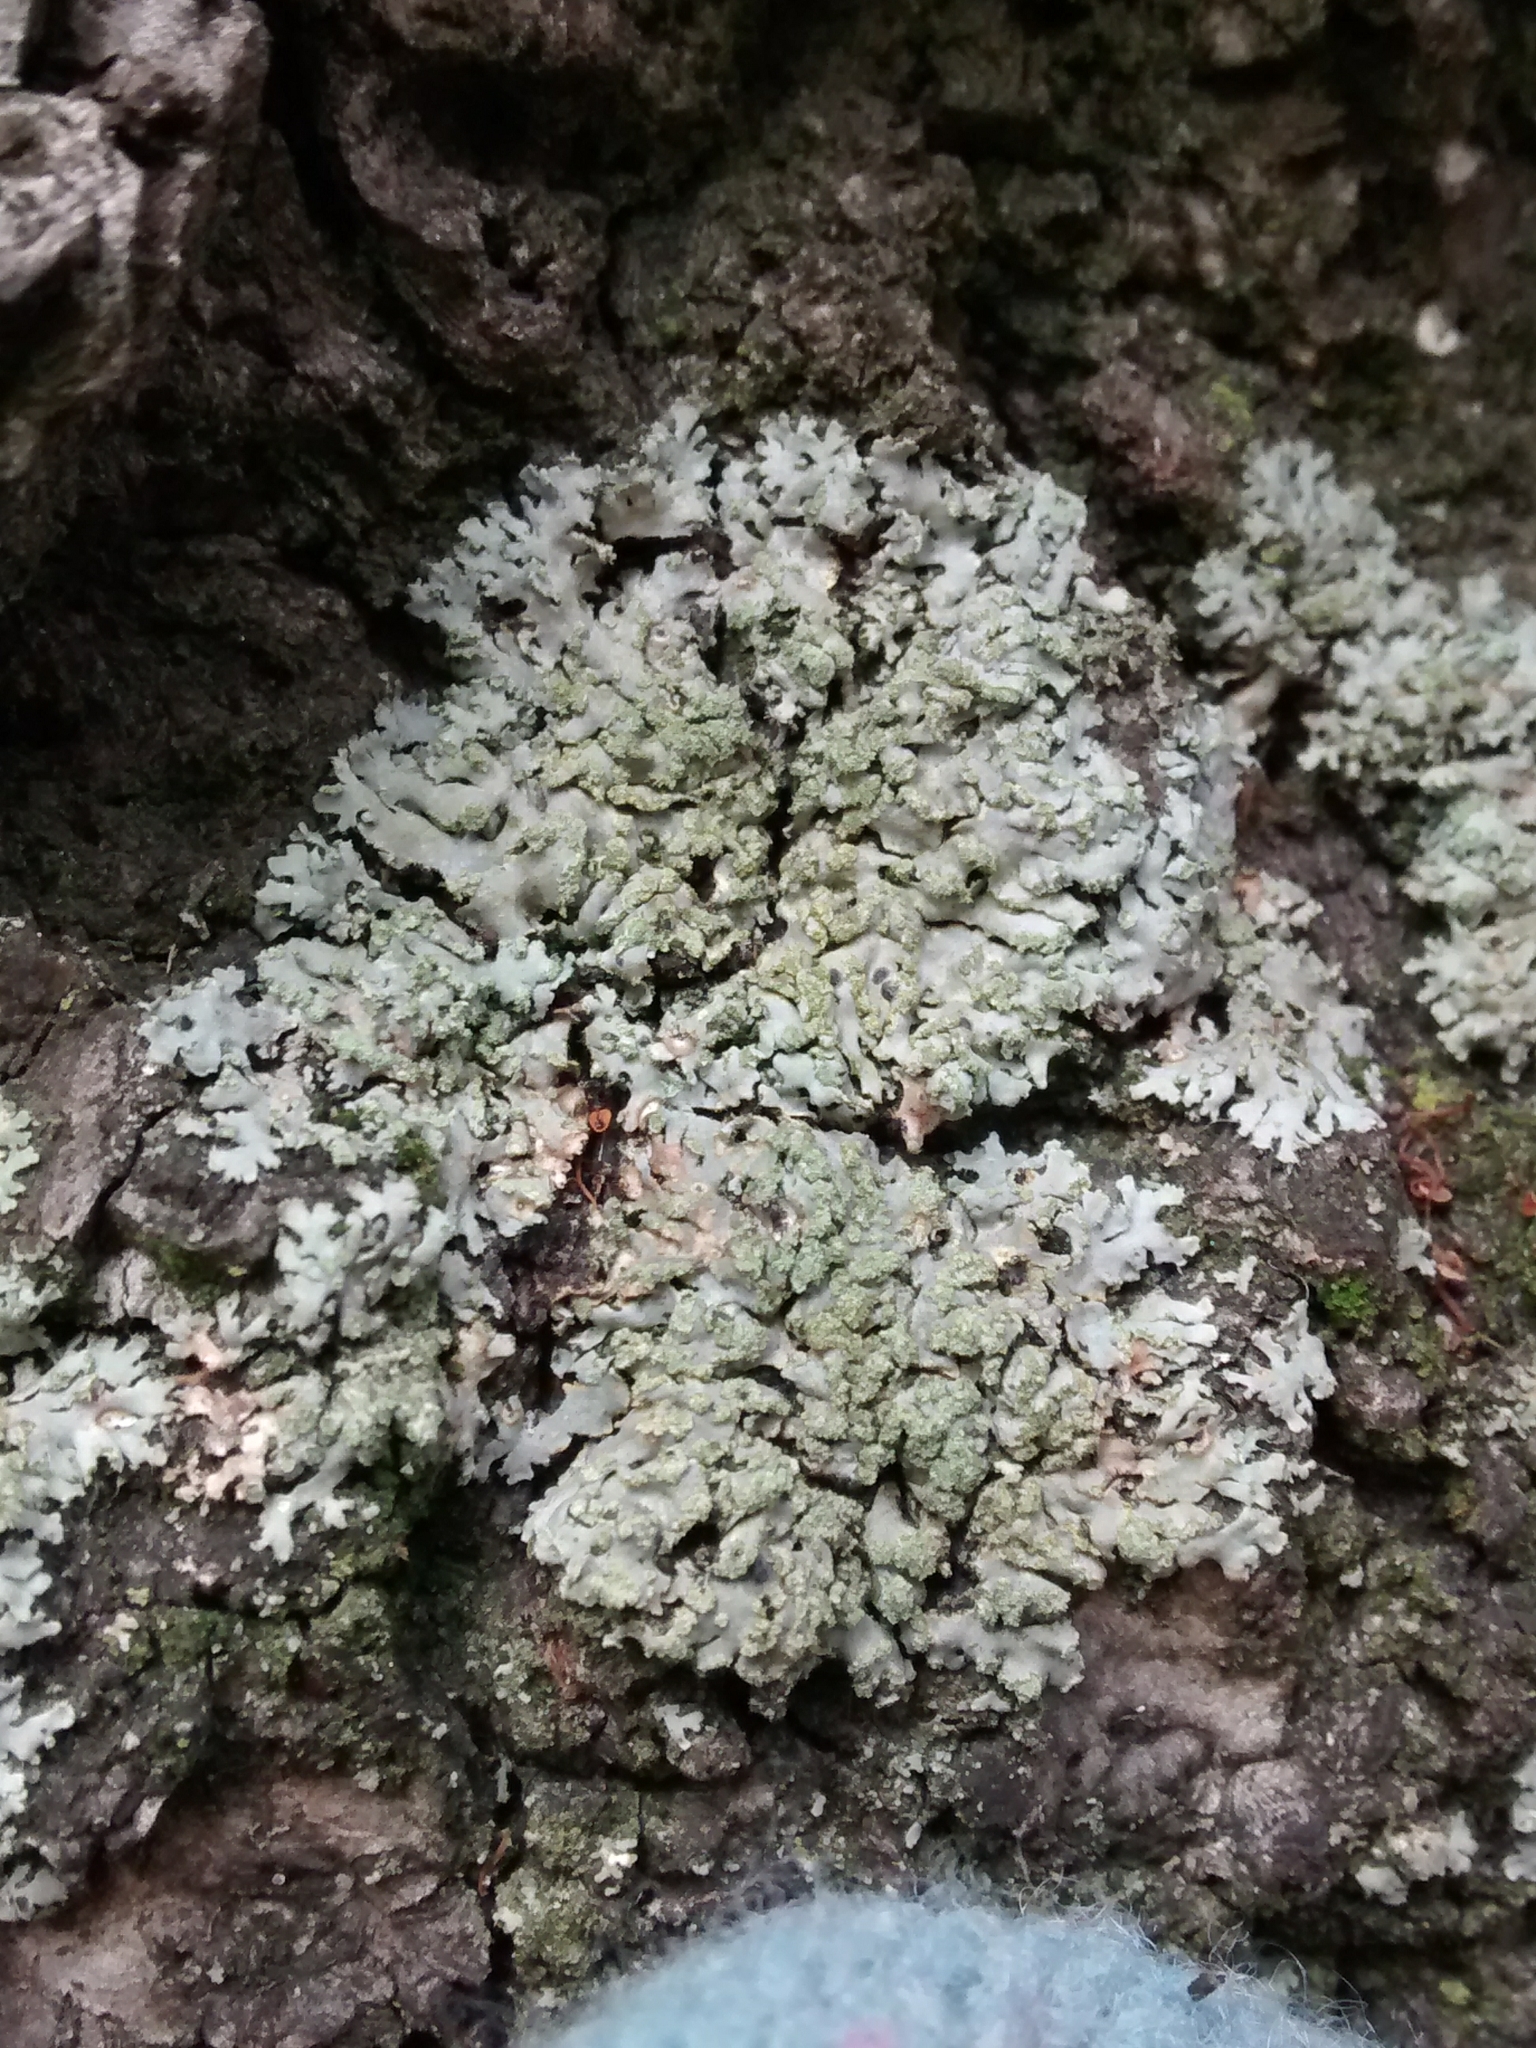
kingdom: Fungi
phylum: Ascomycota
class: Lecanoromycetes
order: Caliciales
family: Physciaceae
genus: Phaeophyscia
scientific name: Phaeophyscia orbicularis
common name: Mealy shadow lichen
